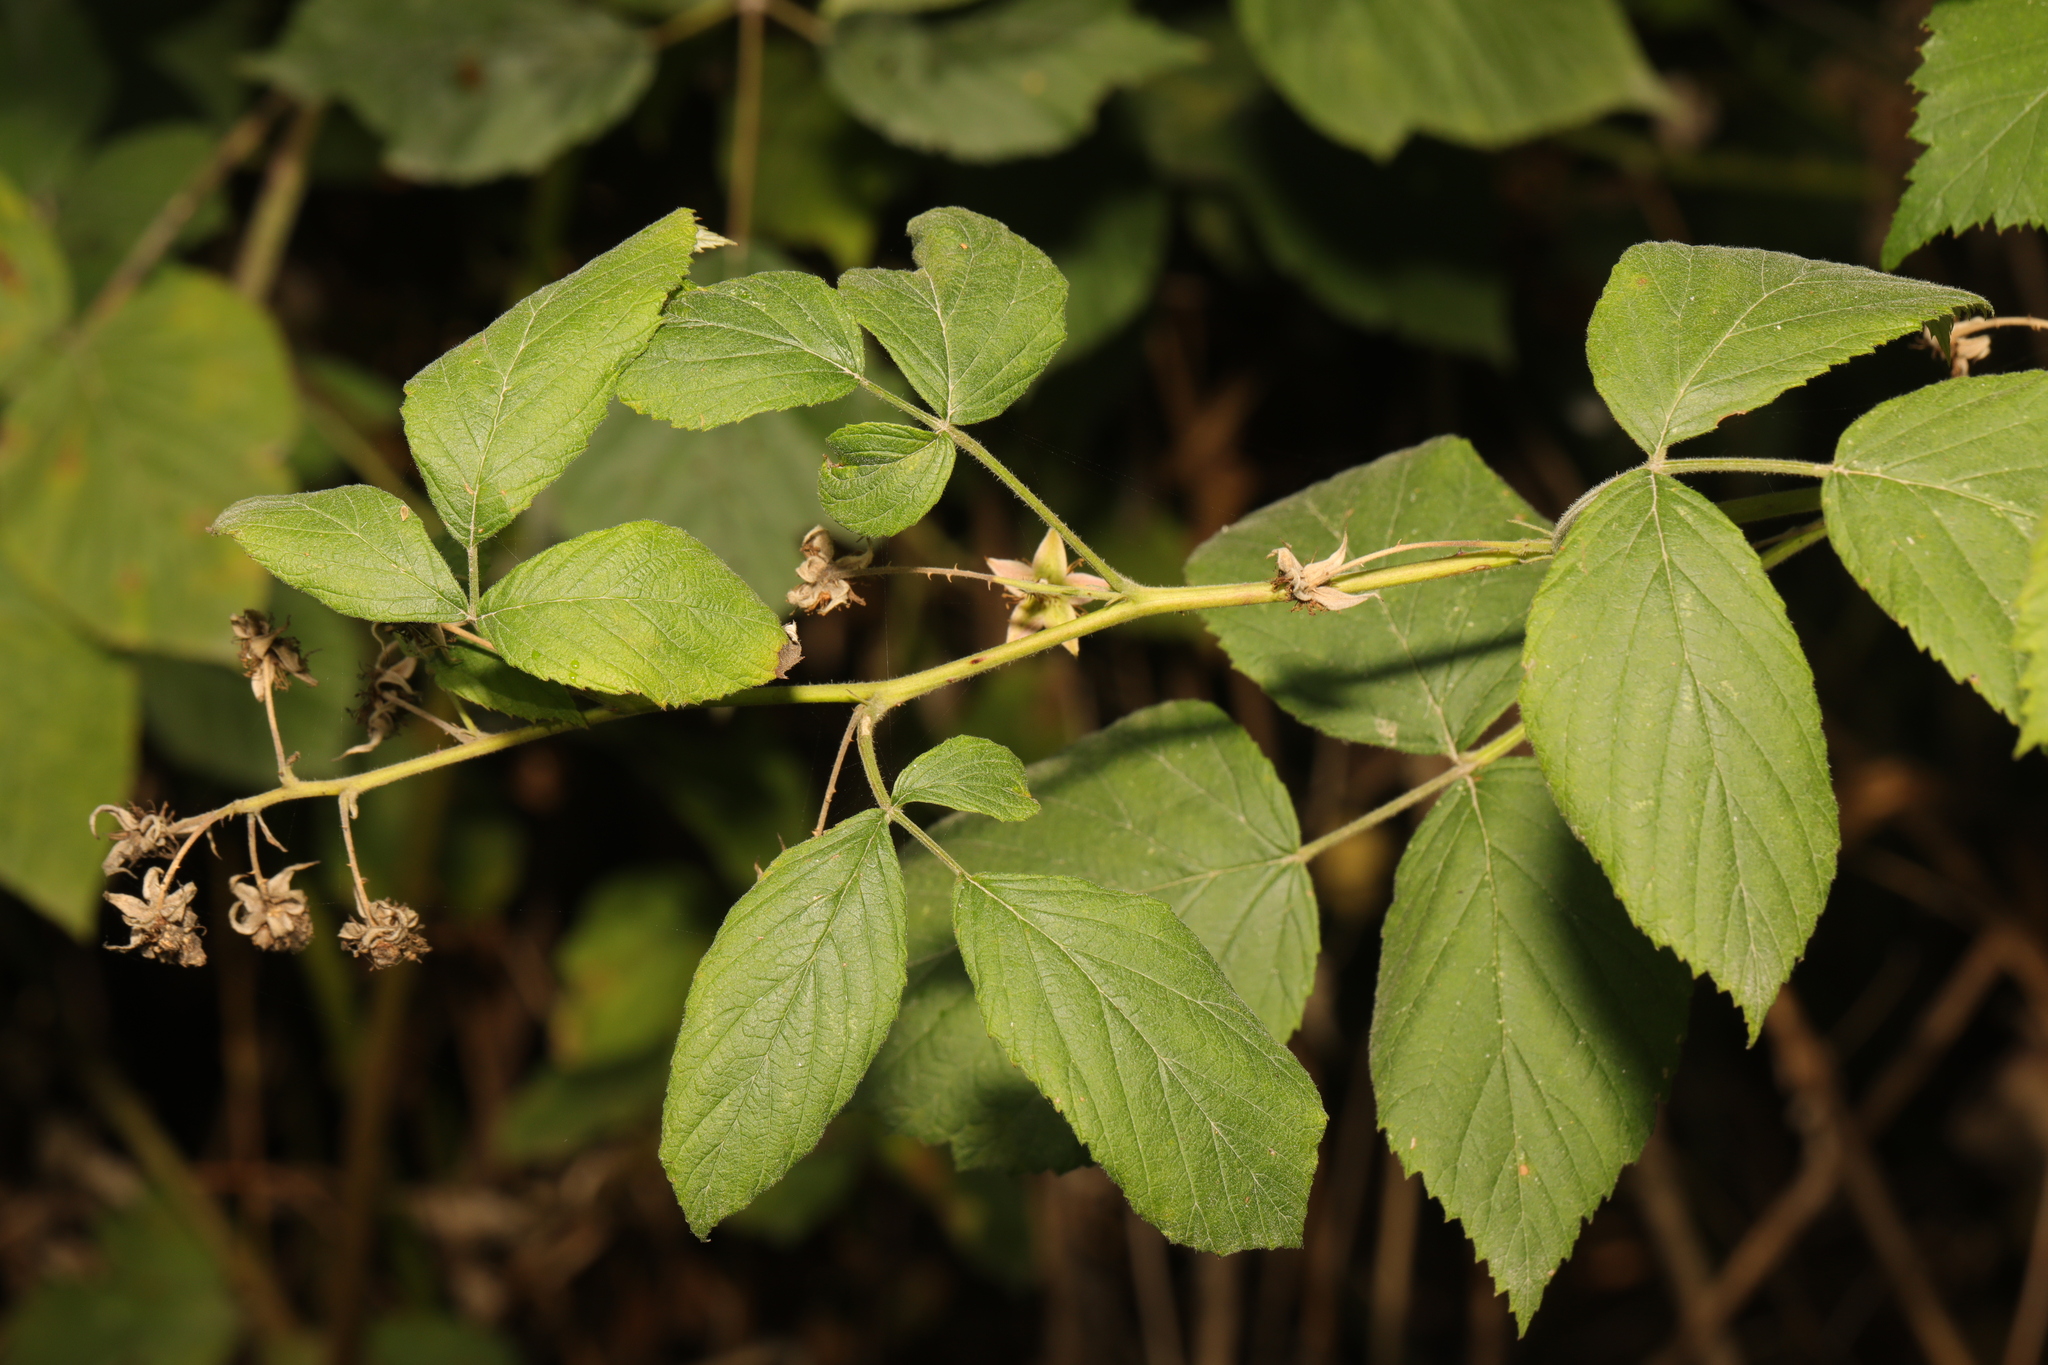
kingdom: Plantae
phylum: Tracheophyta
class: Magnoliopsida
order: Rosales
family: Rosaceae
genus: Rubus
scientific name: Rubus idaeus
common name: Raspberry
